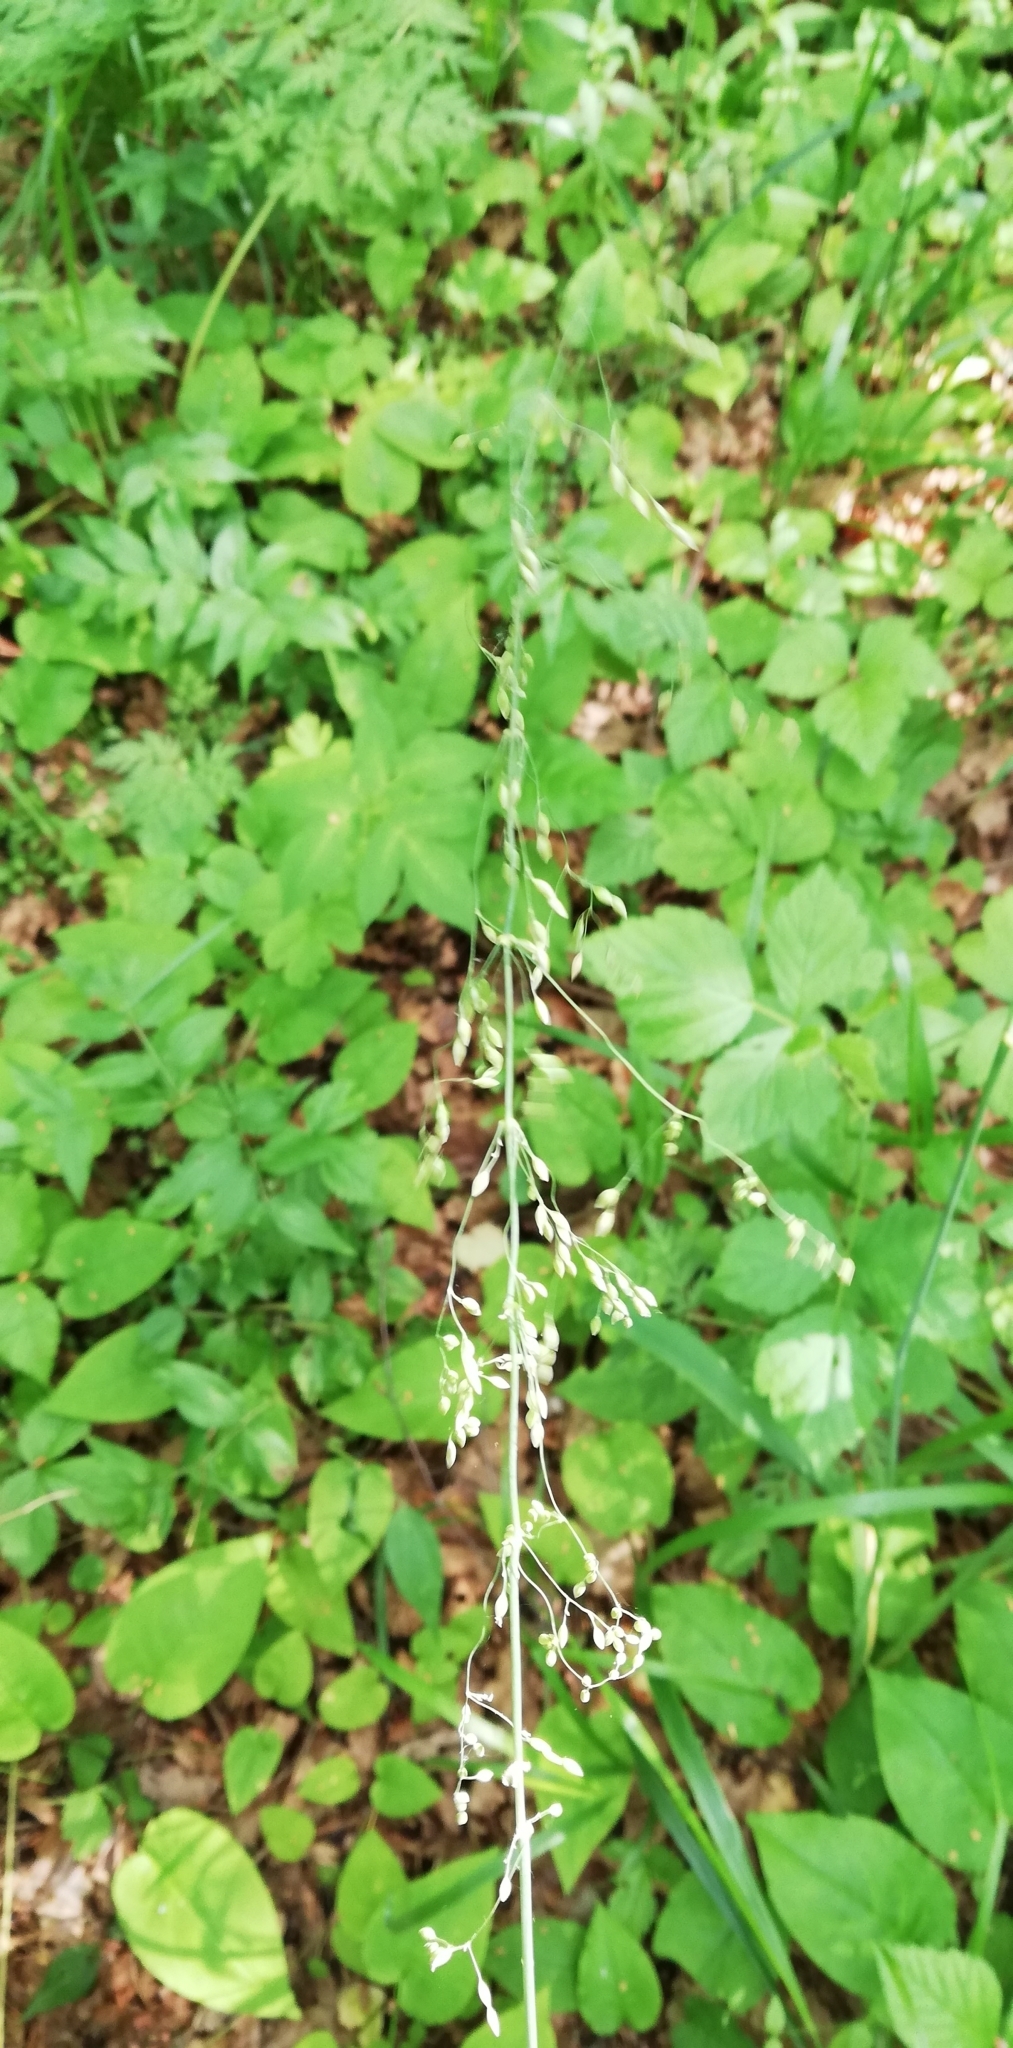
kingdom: Plantae
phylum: Tracheophyta
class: Liliopsida
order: Poales
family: Poaceae
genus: Milium
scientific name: Milium effusum
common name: Wood millet
